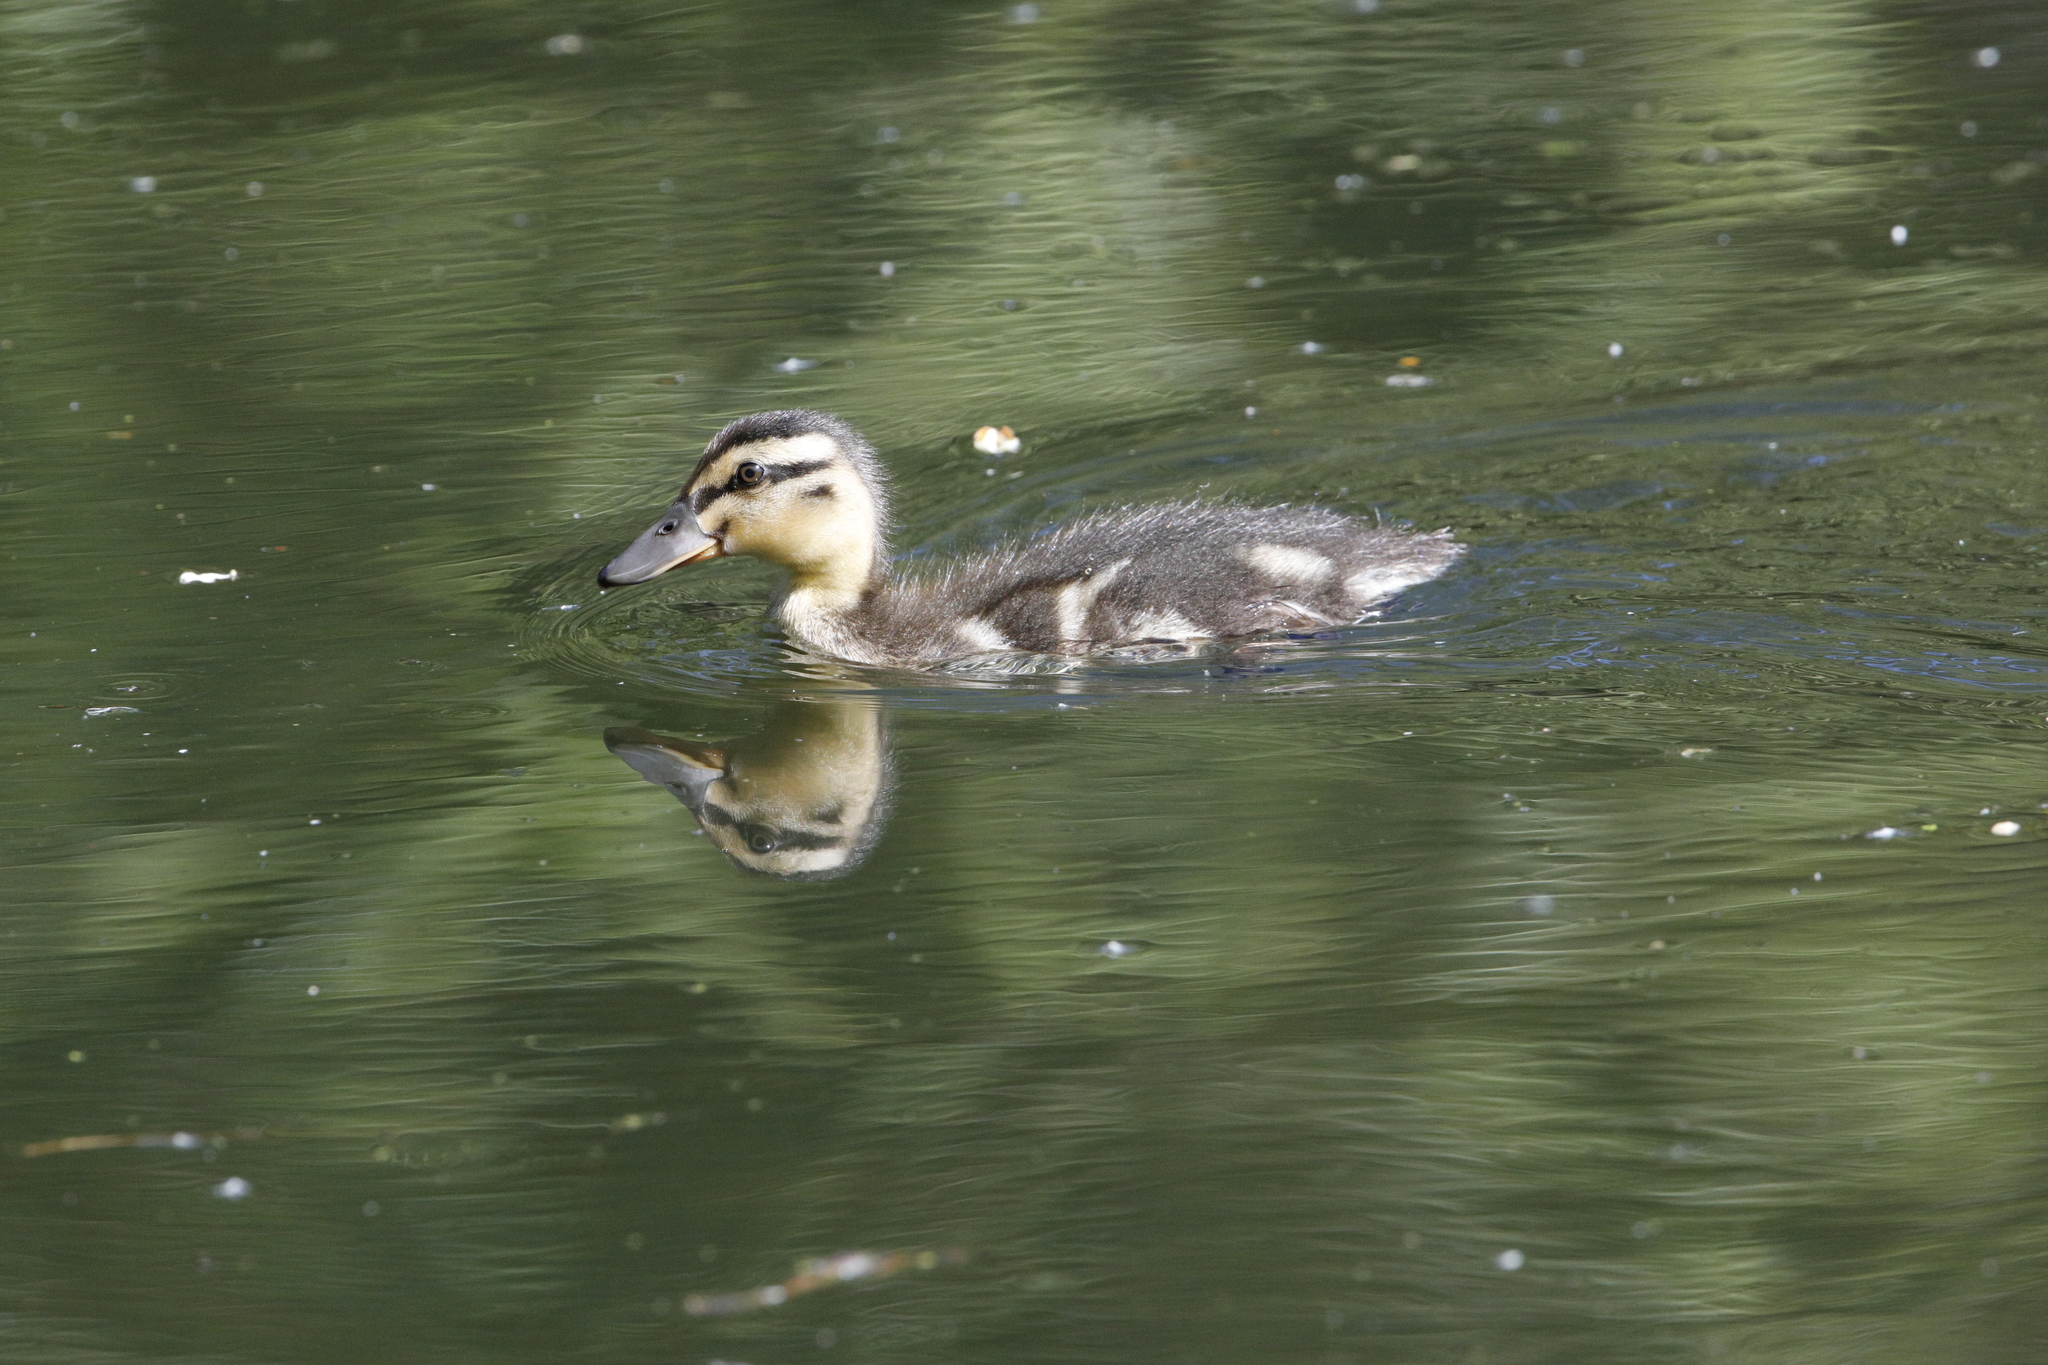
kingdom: Animalia
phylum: Chordata
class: Aves
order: Anseriformes
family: Anatidae
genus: Anas
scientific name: Anas platyrhynchos
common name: Mallard
